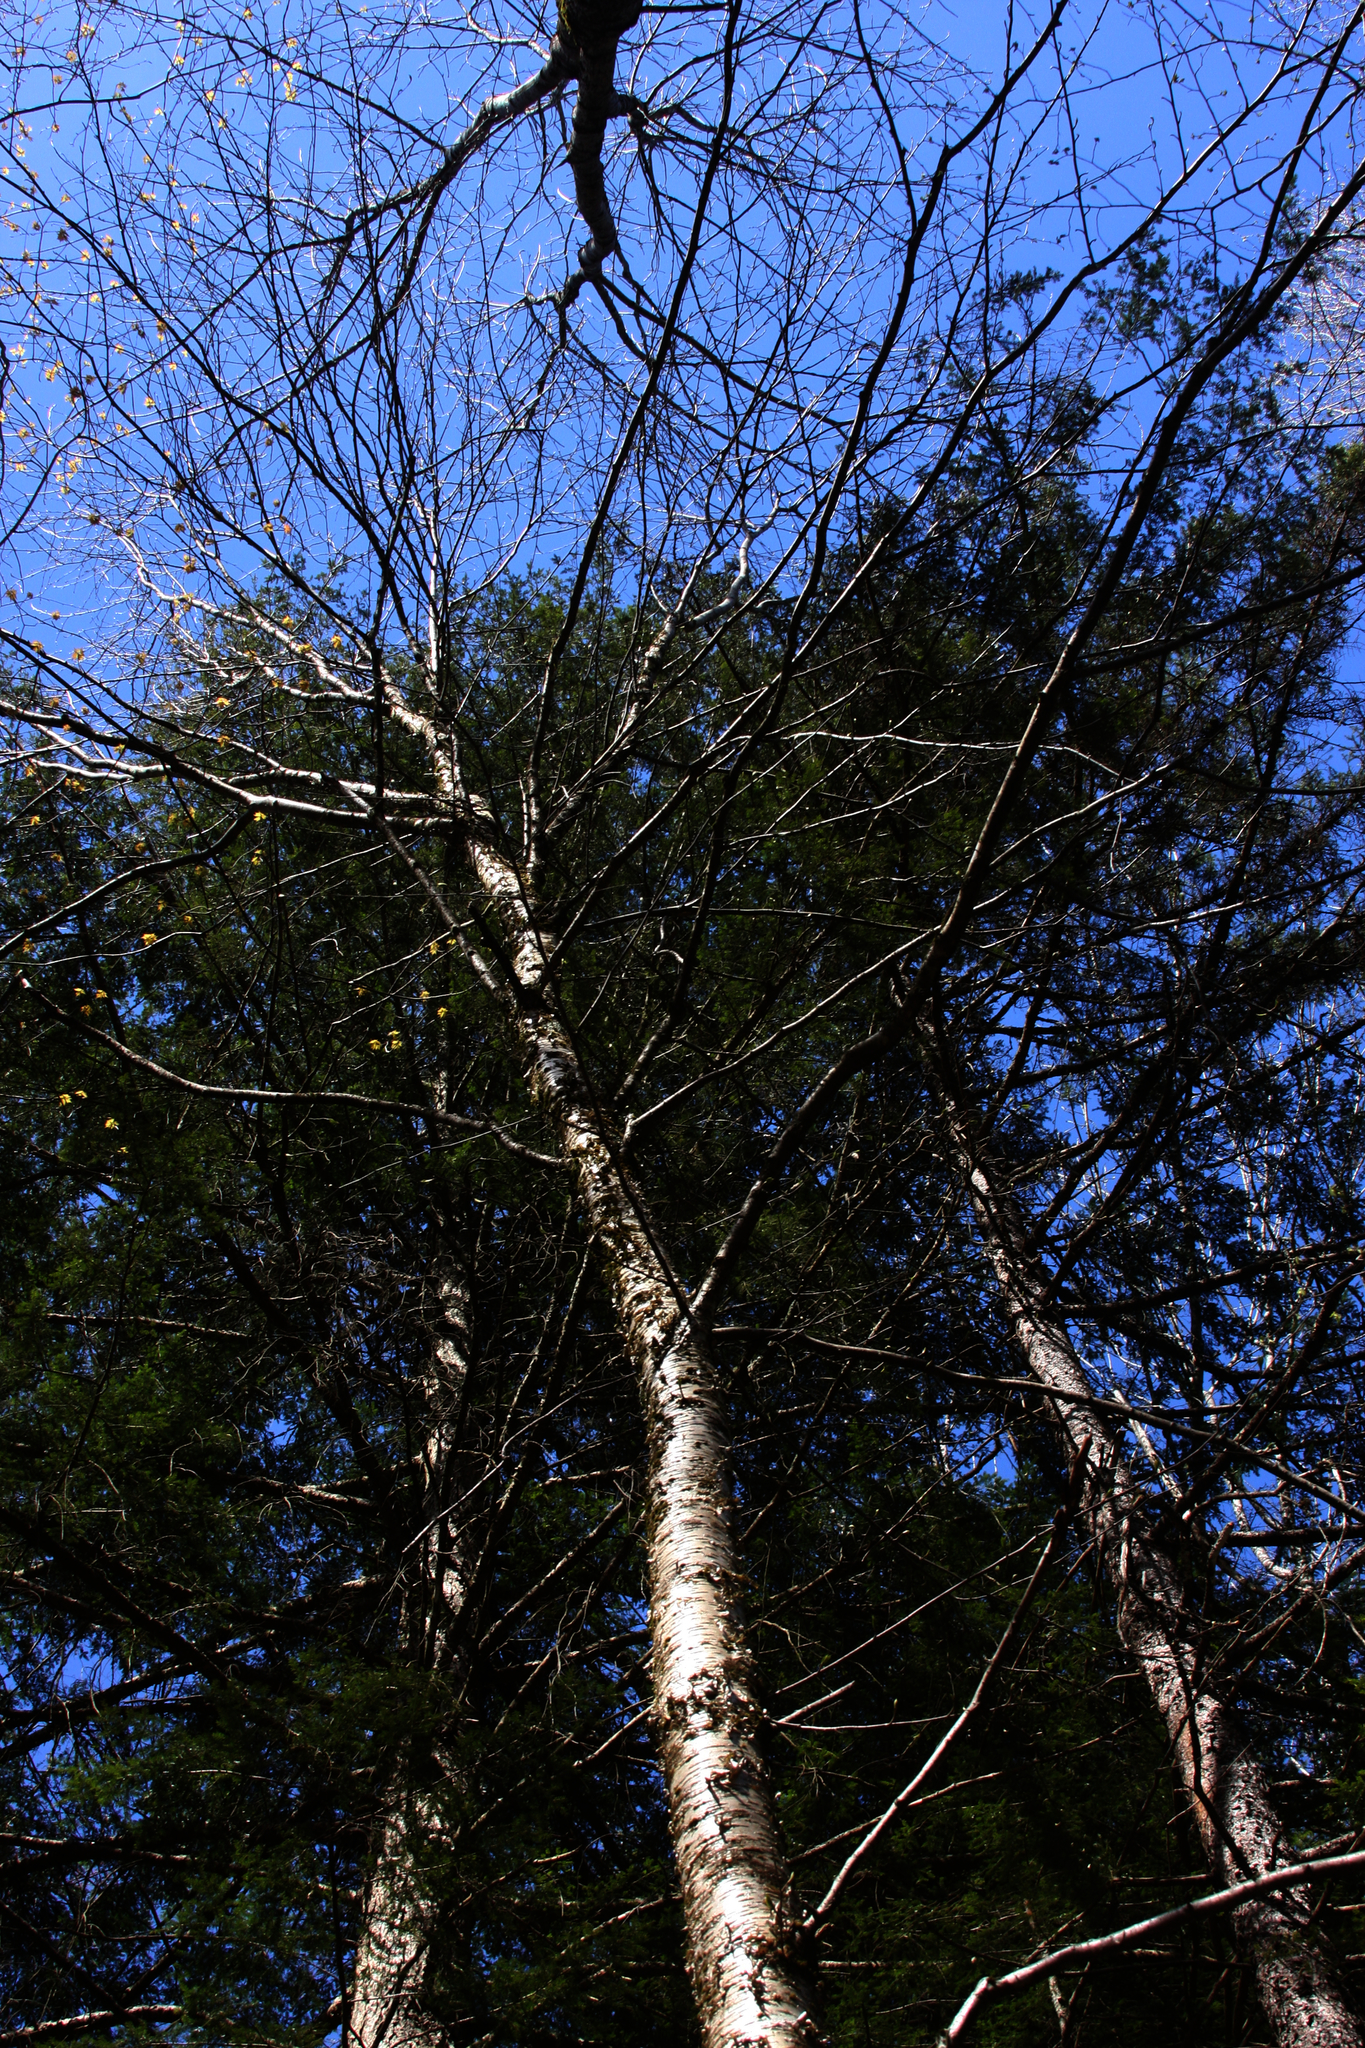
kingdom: Plantae
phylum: Tracheophyta
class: Magnoliopsida
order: Fagales
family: Betulaceae
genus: Betula
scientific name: Betula alleghaniensis
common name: Yellow birch
